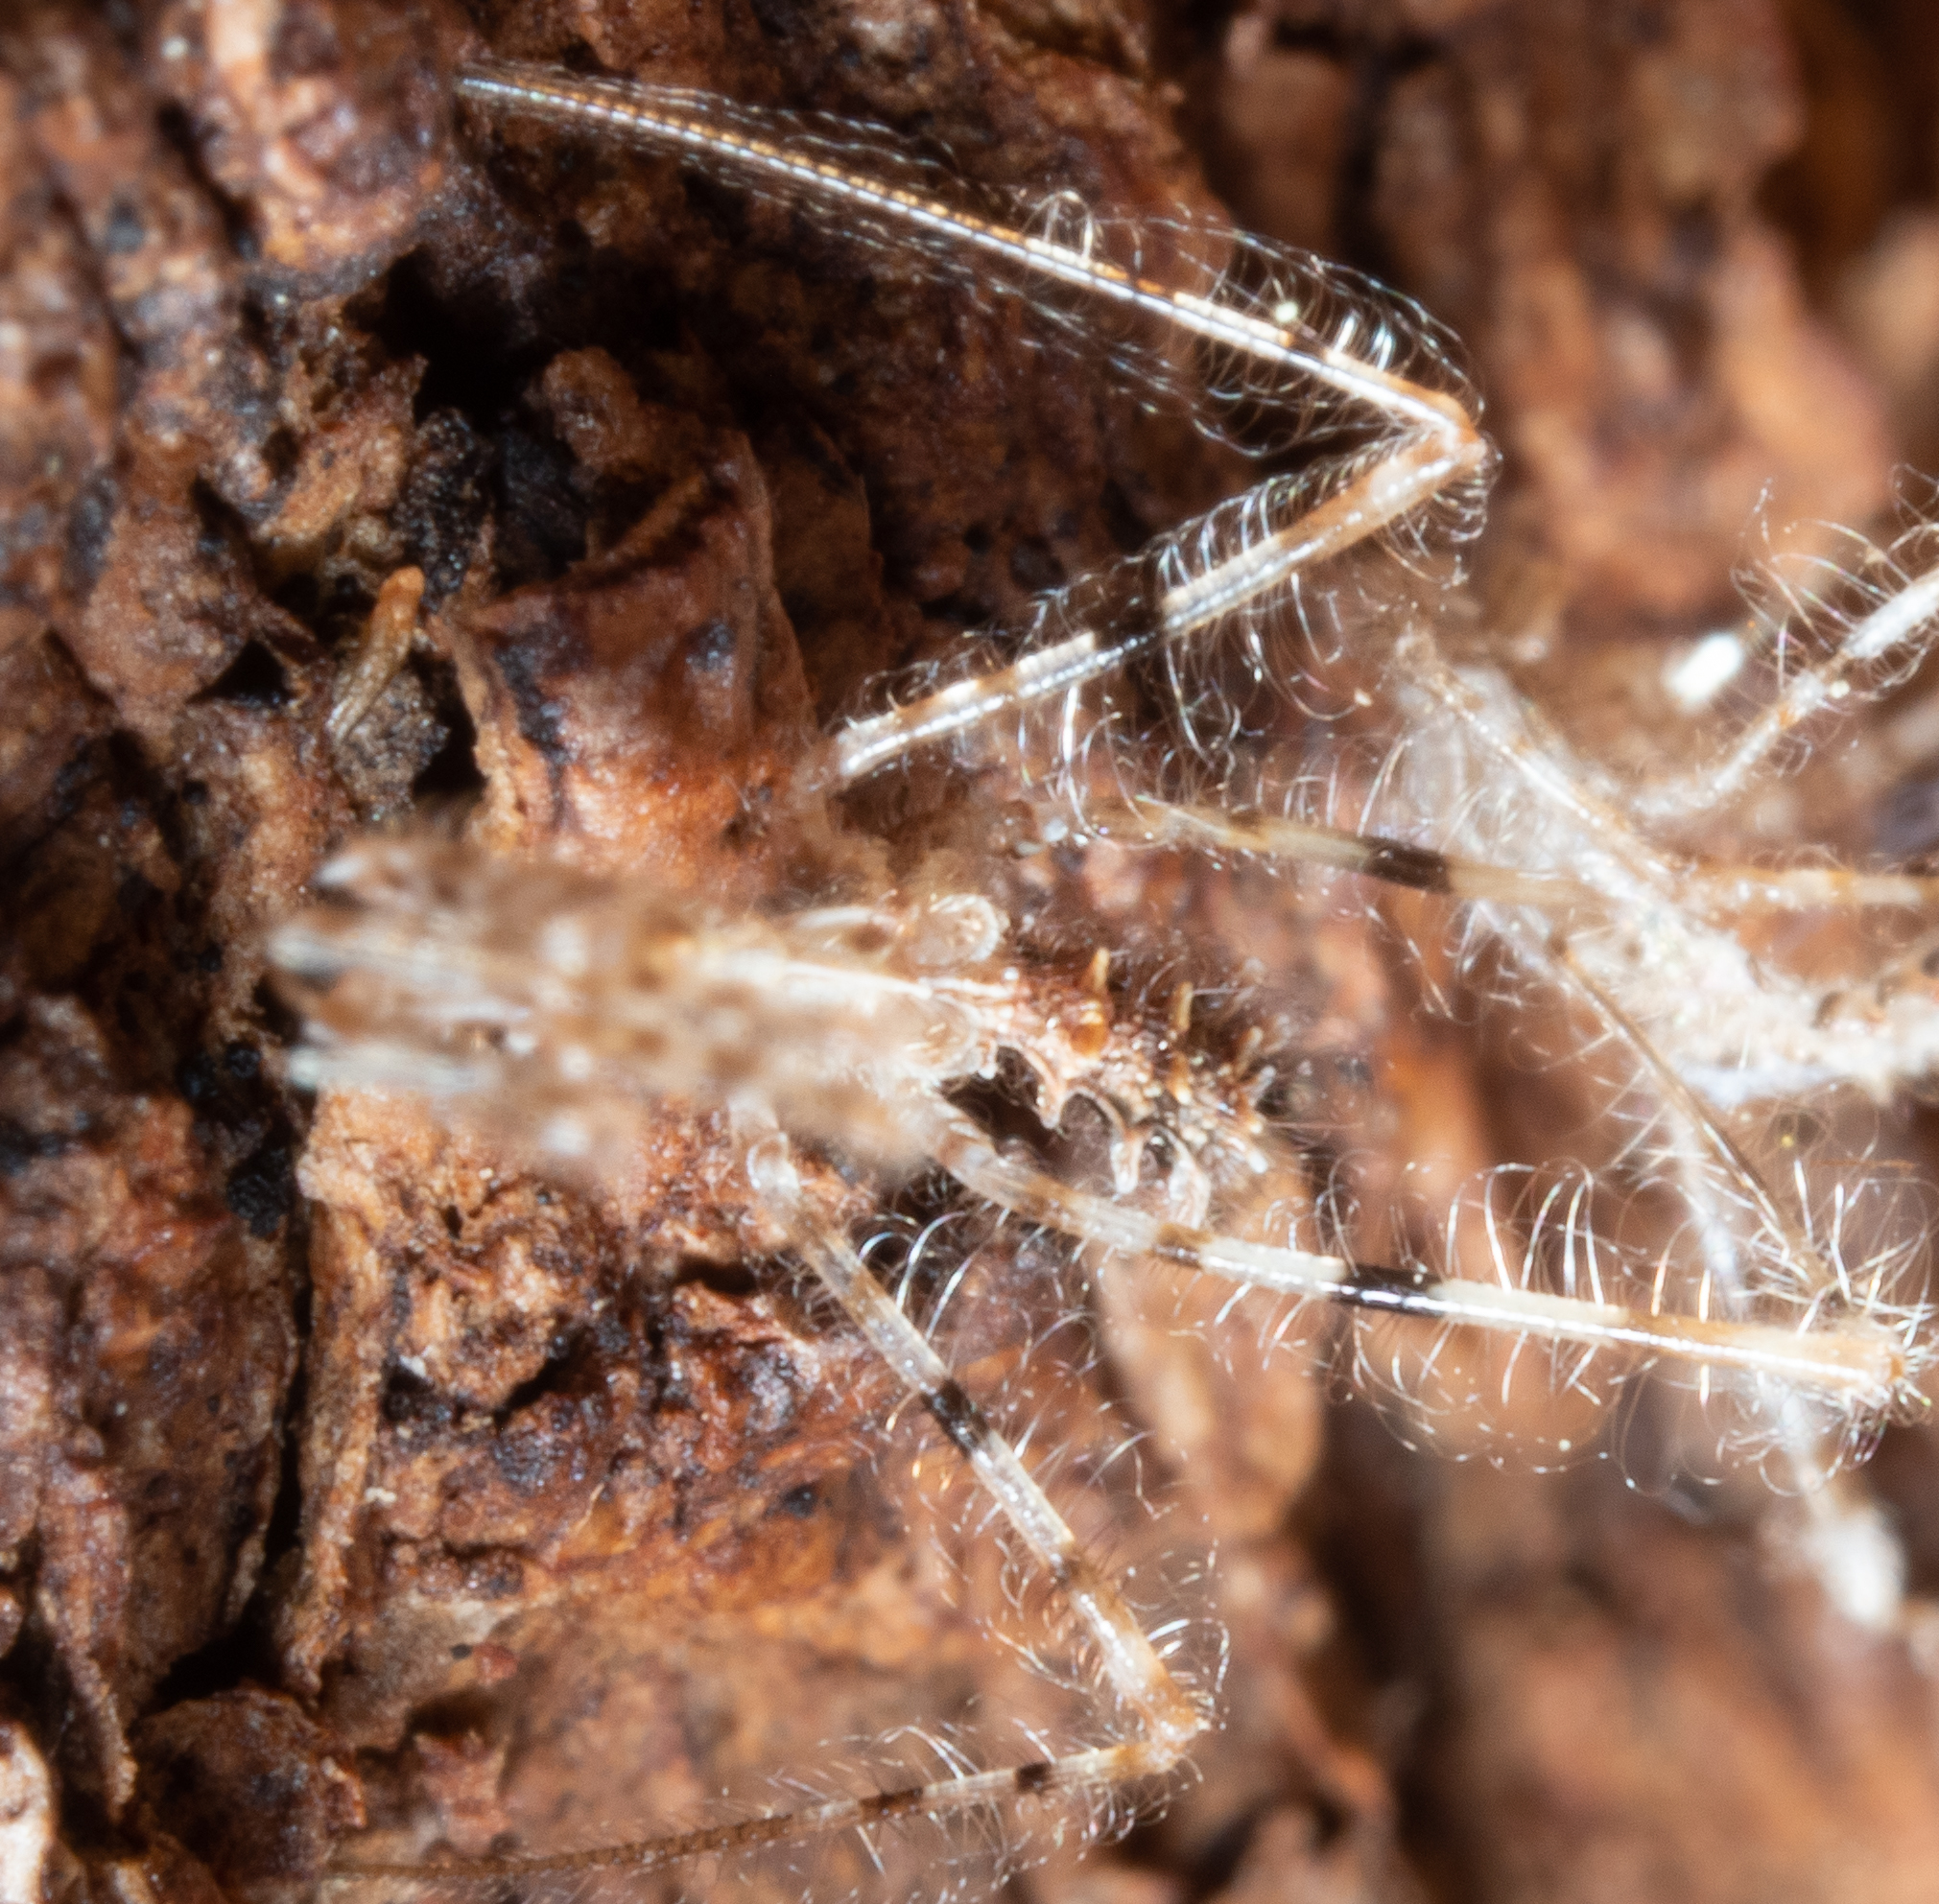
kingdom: Animalia
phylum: Arthropoda
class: Insecta
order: Hemiptera
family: Reduviidae
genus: Stenolemus
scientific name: Stenolemus
